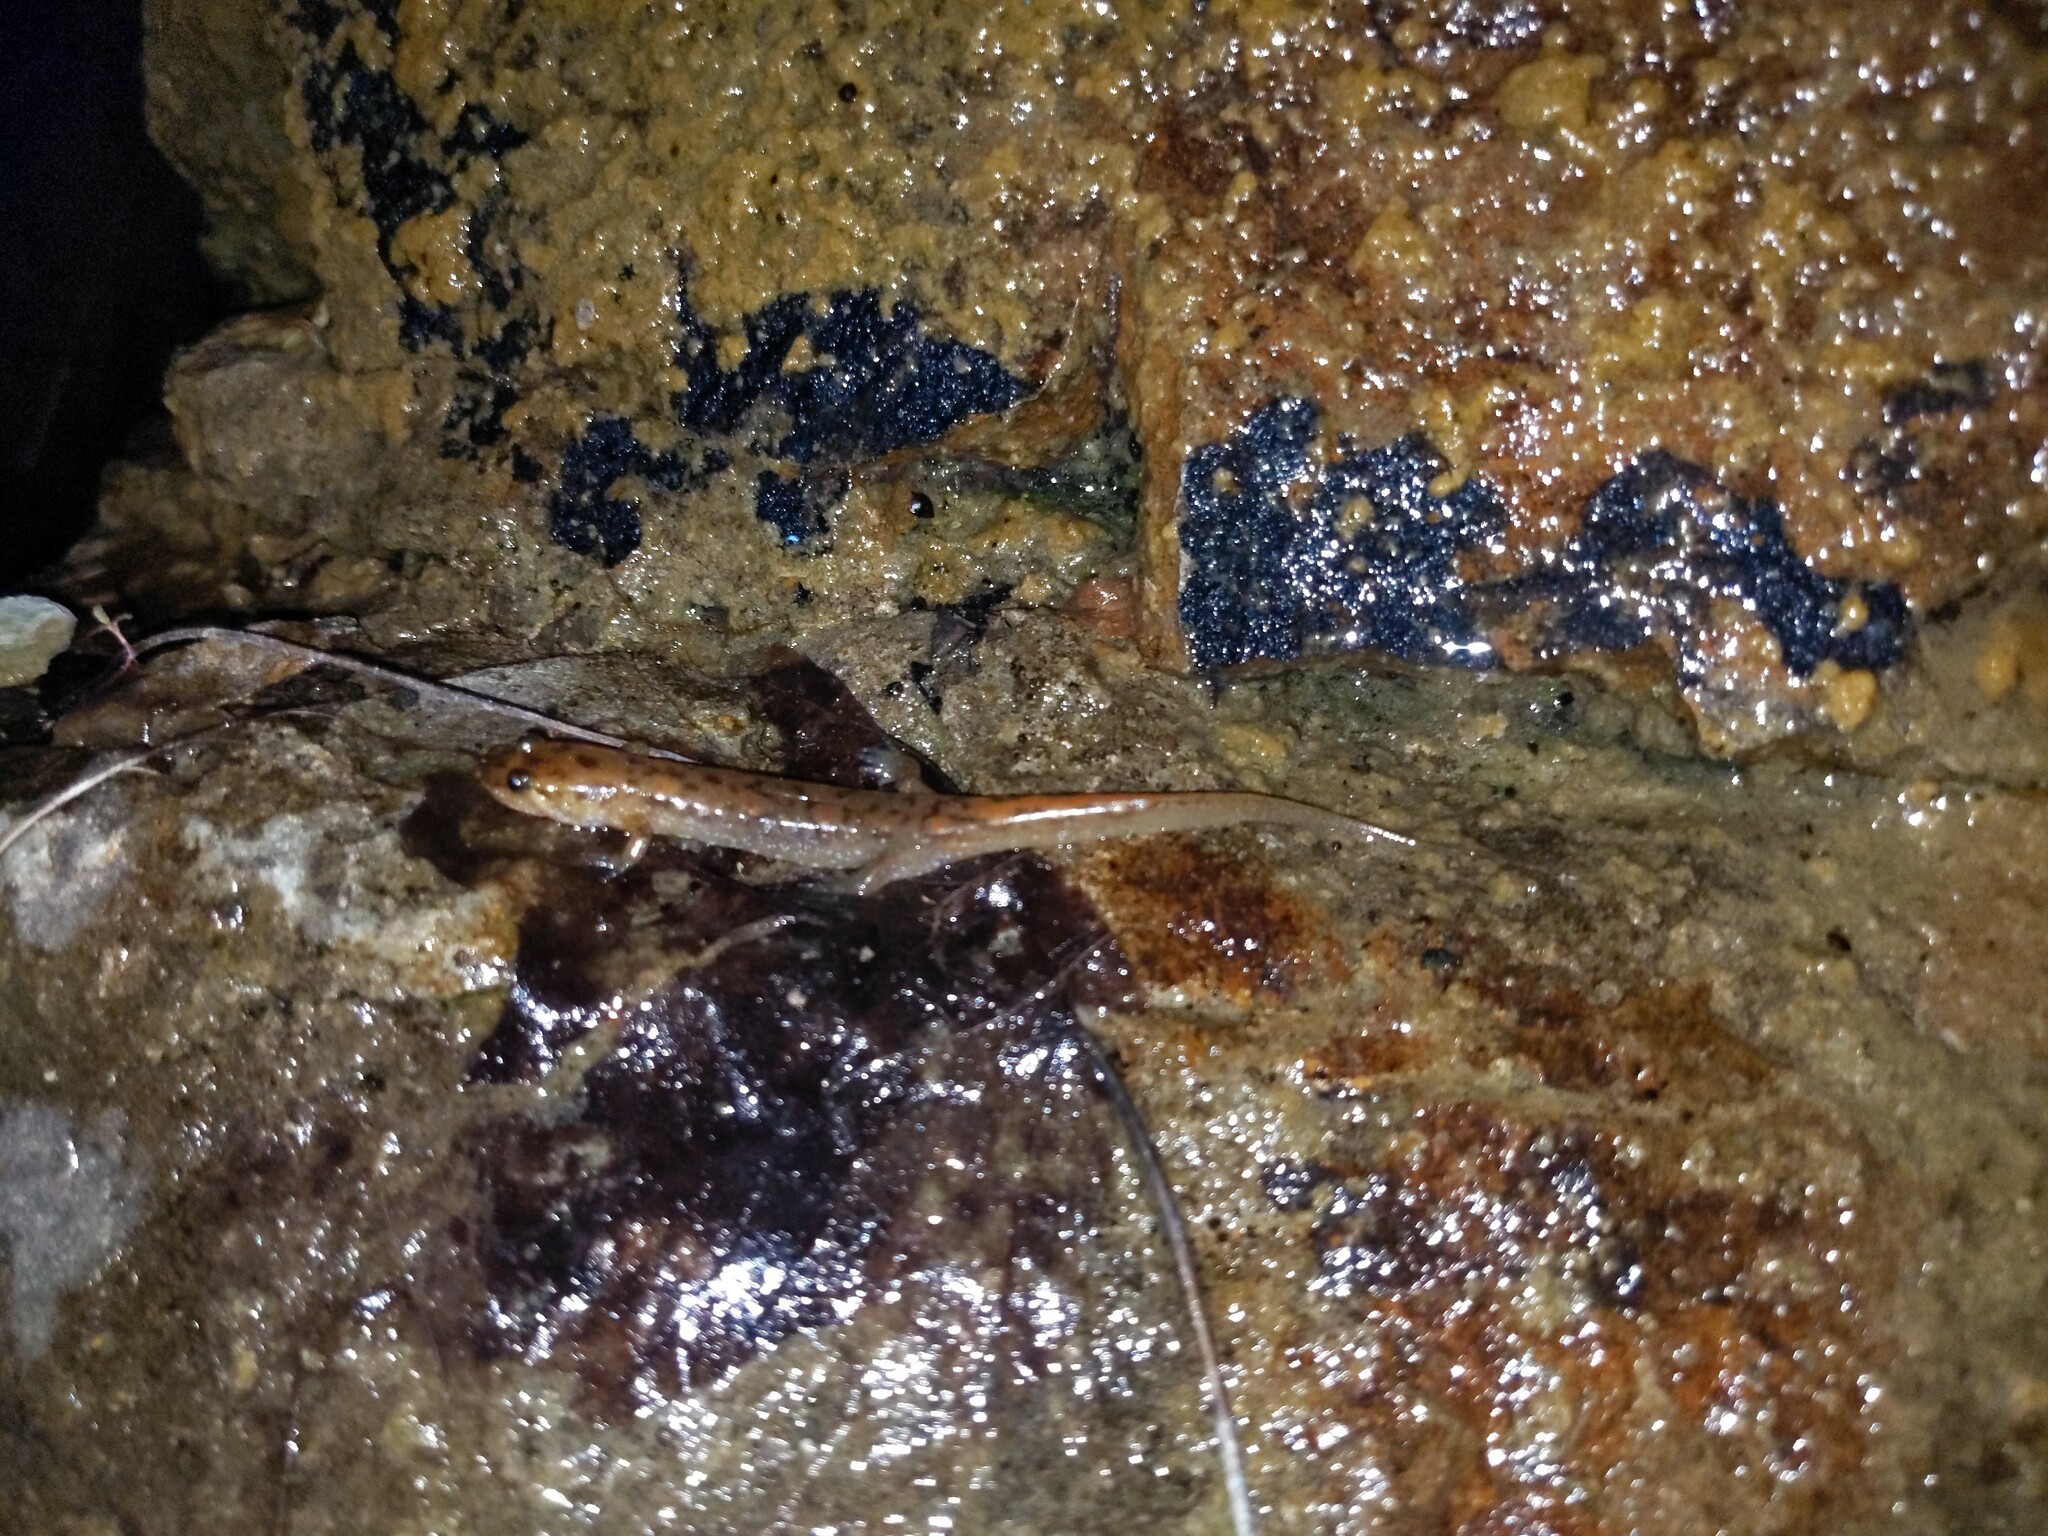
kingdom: Animalia
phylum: Chordata
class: Amphibia
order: Caudata
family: Plethodontidae
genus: Desmognathus
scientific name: Desmognathus monticola
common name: Seal salamander
